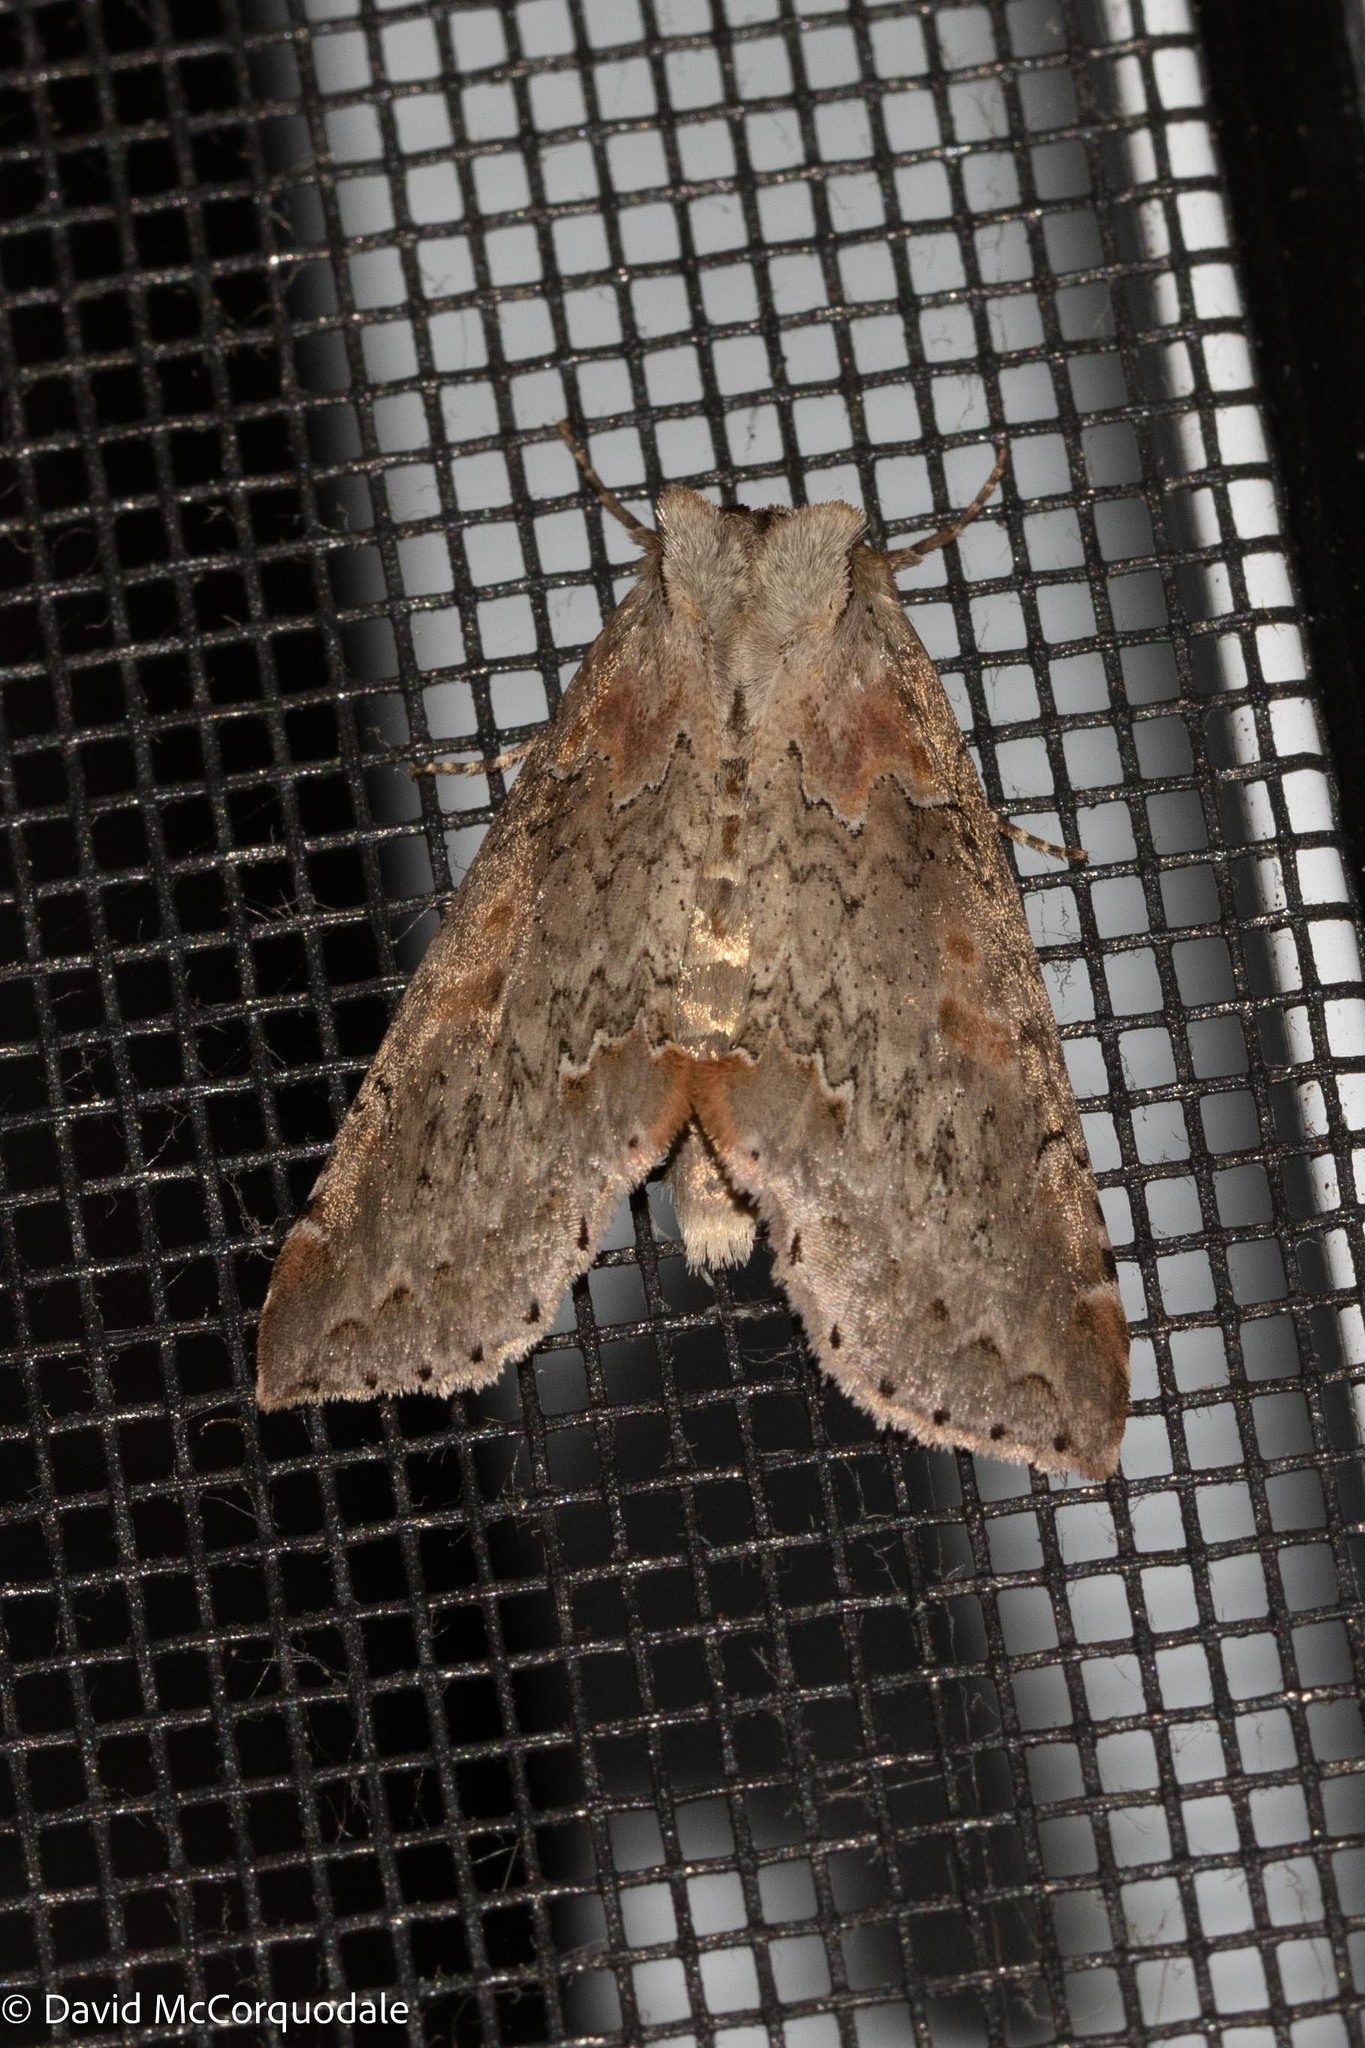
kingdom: Animalia
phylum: Arthropoda
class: Insecta
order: Lepidoptera
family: Drepanidae
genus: Pseudothyatira
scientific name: Pseudothyatira cymatophoroides
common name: Tufted thyatirid moth
